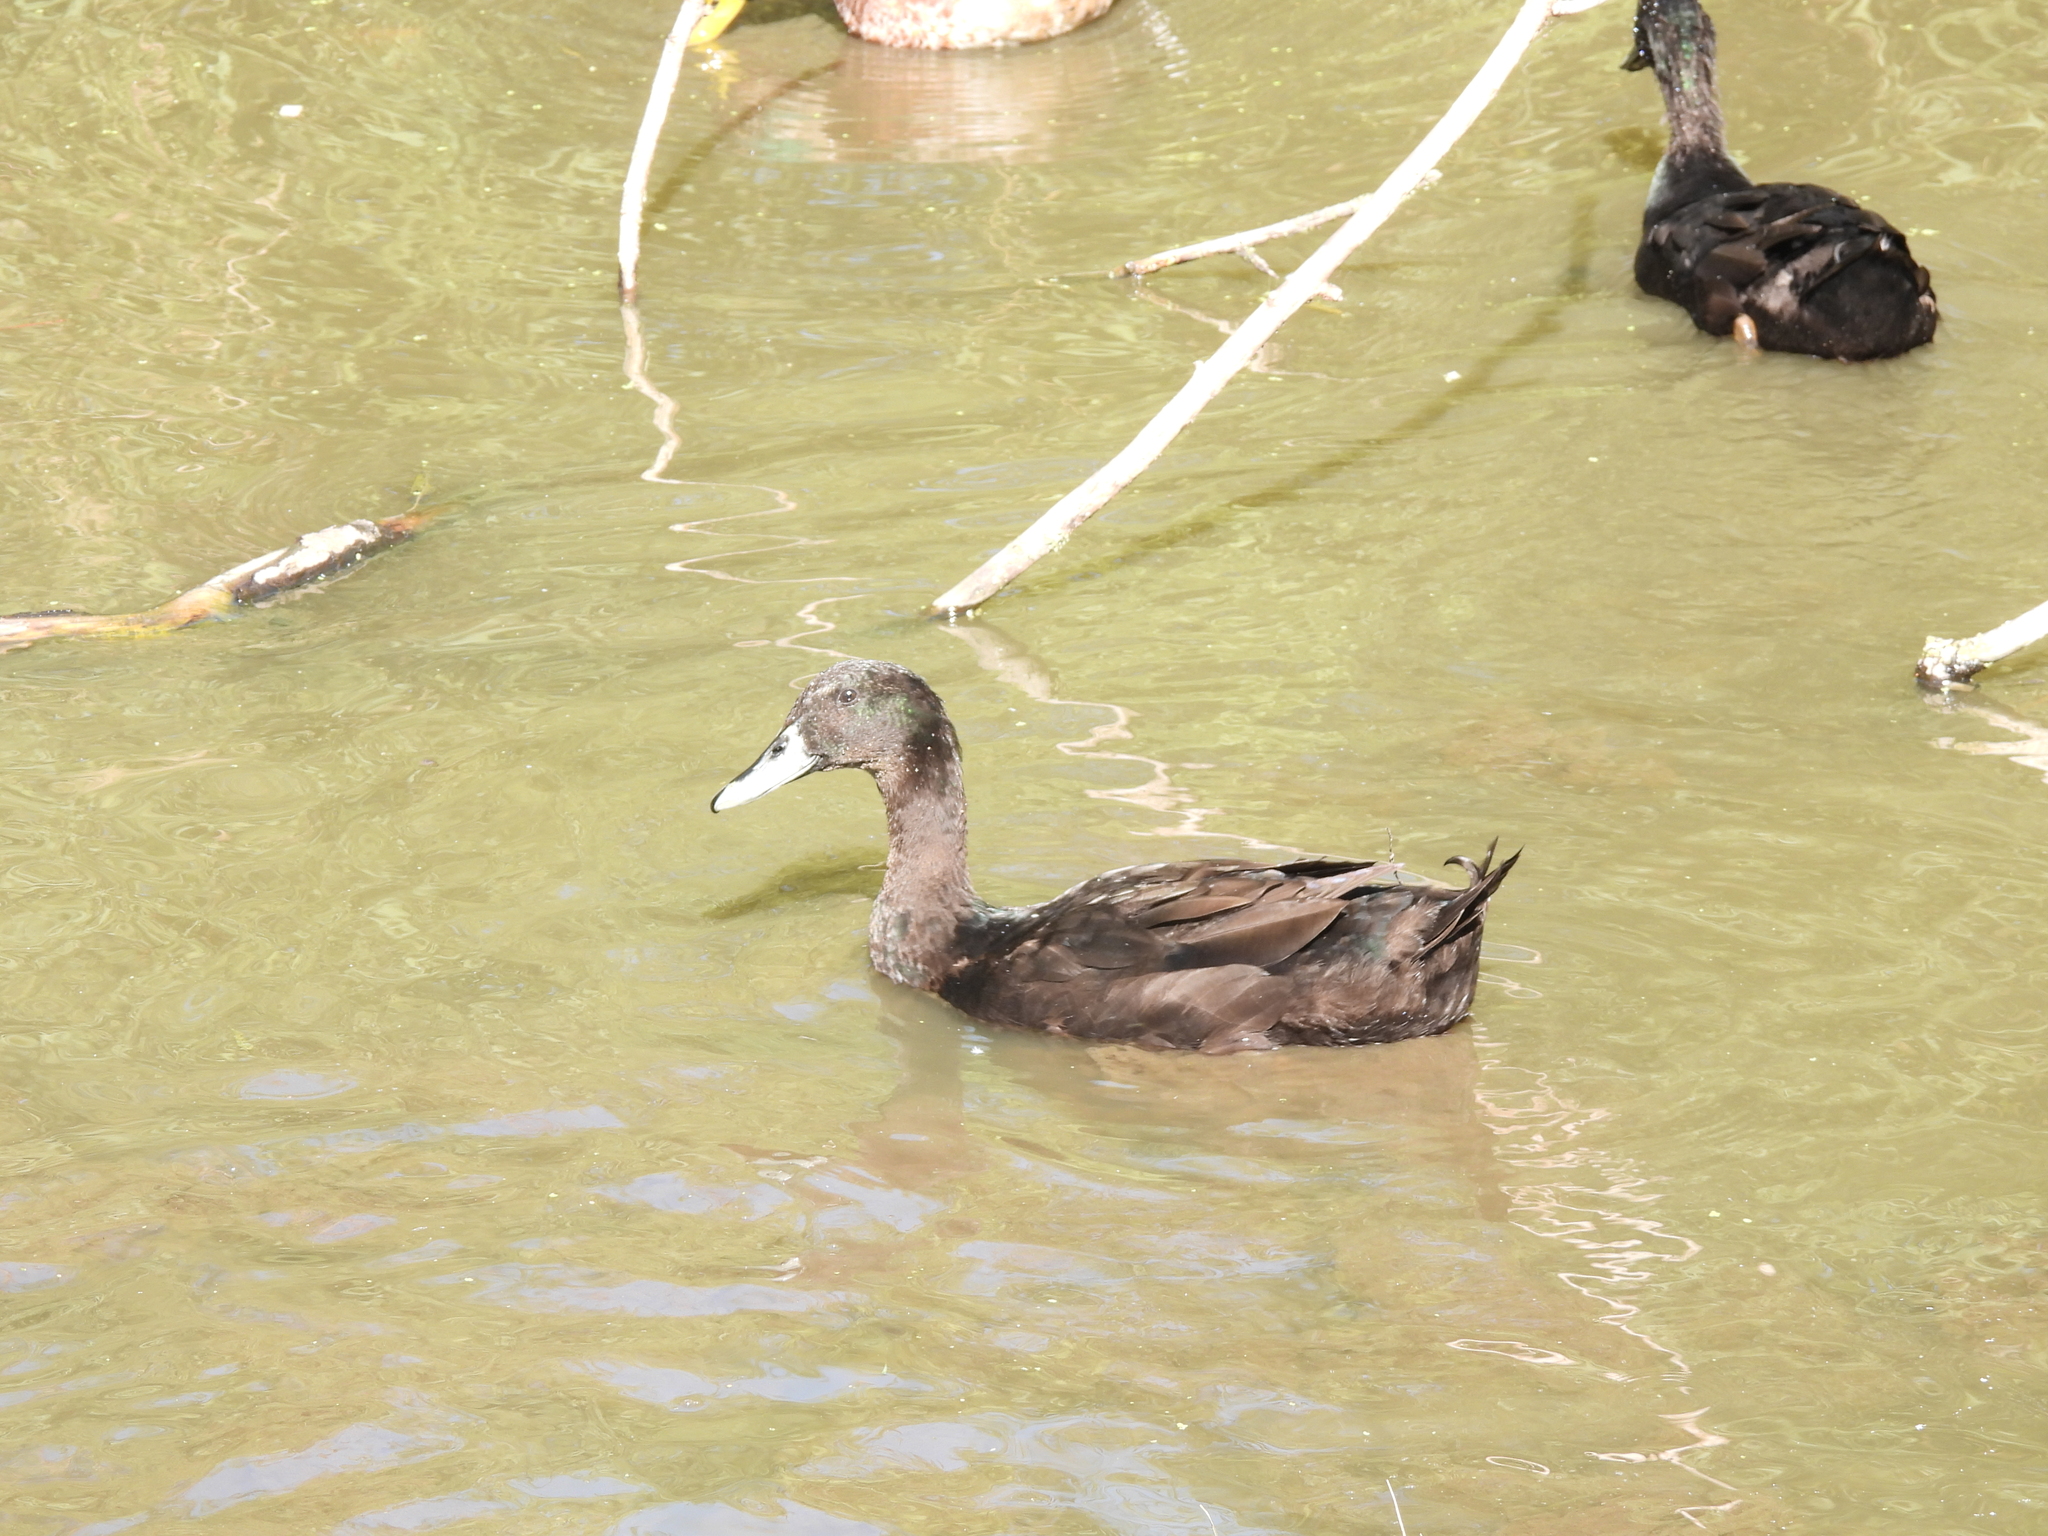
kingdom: Animalia
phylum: Chordata
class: Aves
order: Anseriformes
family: Anatidae
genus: Anas
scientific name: Anas platyrhynchos
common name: Mallard
